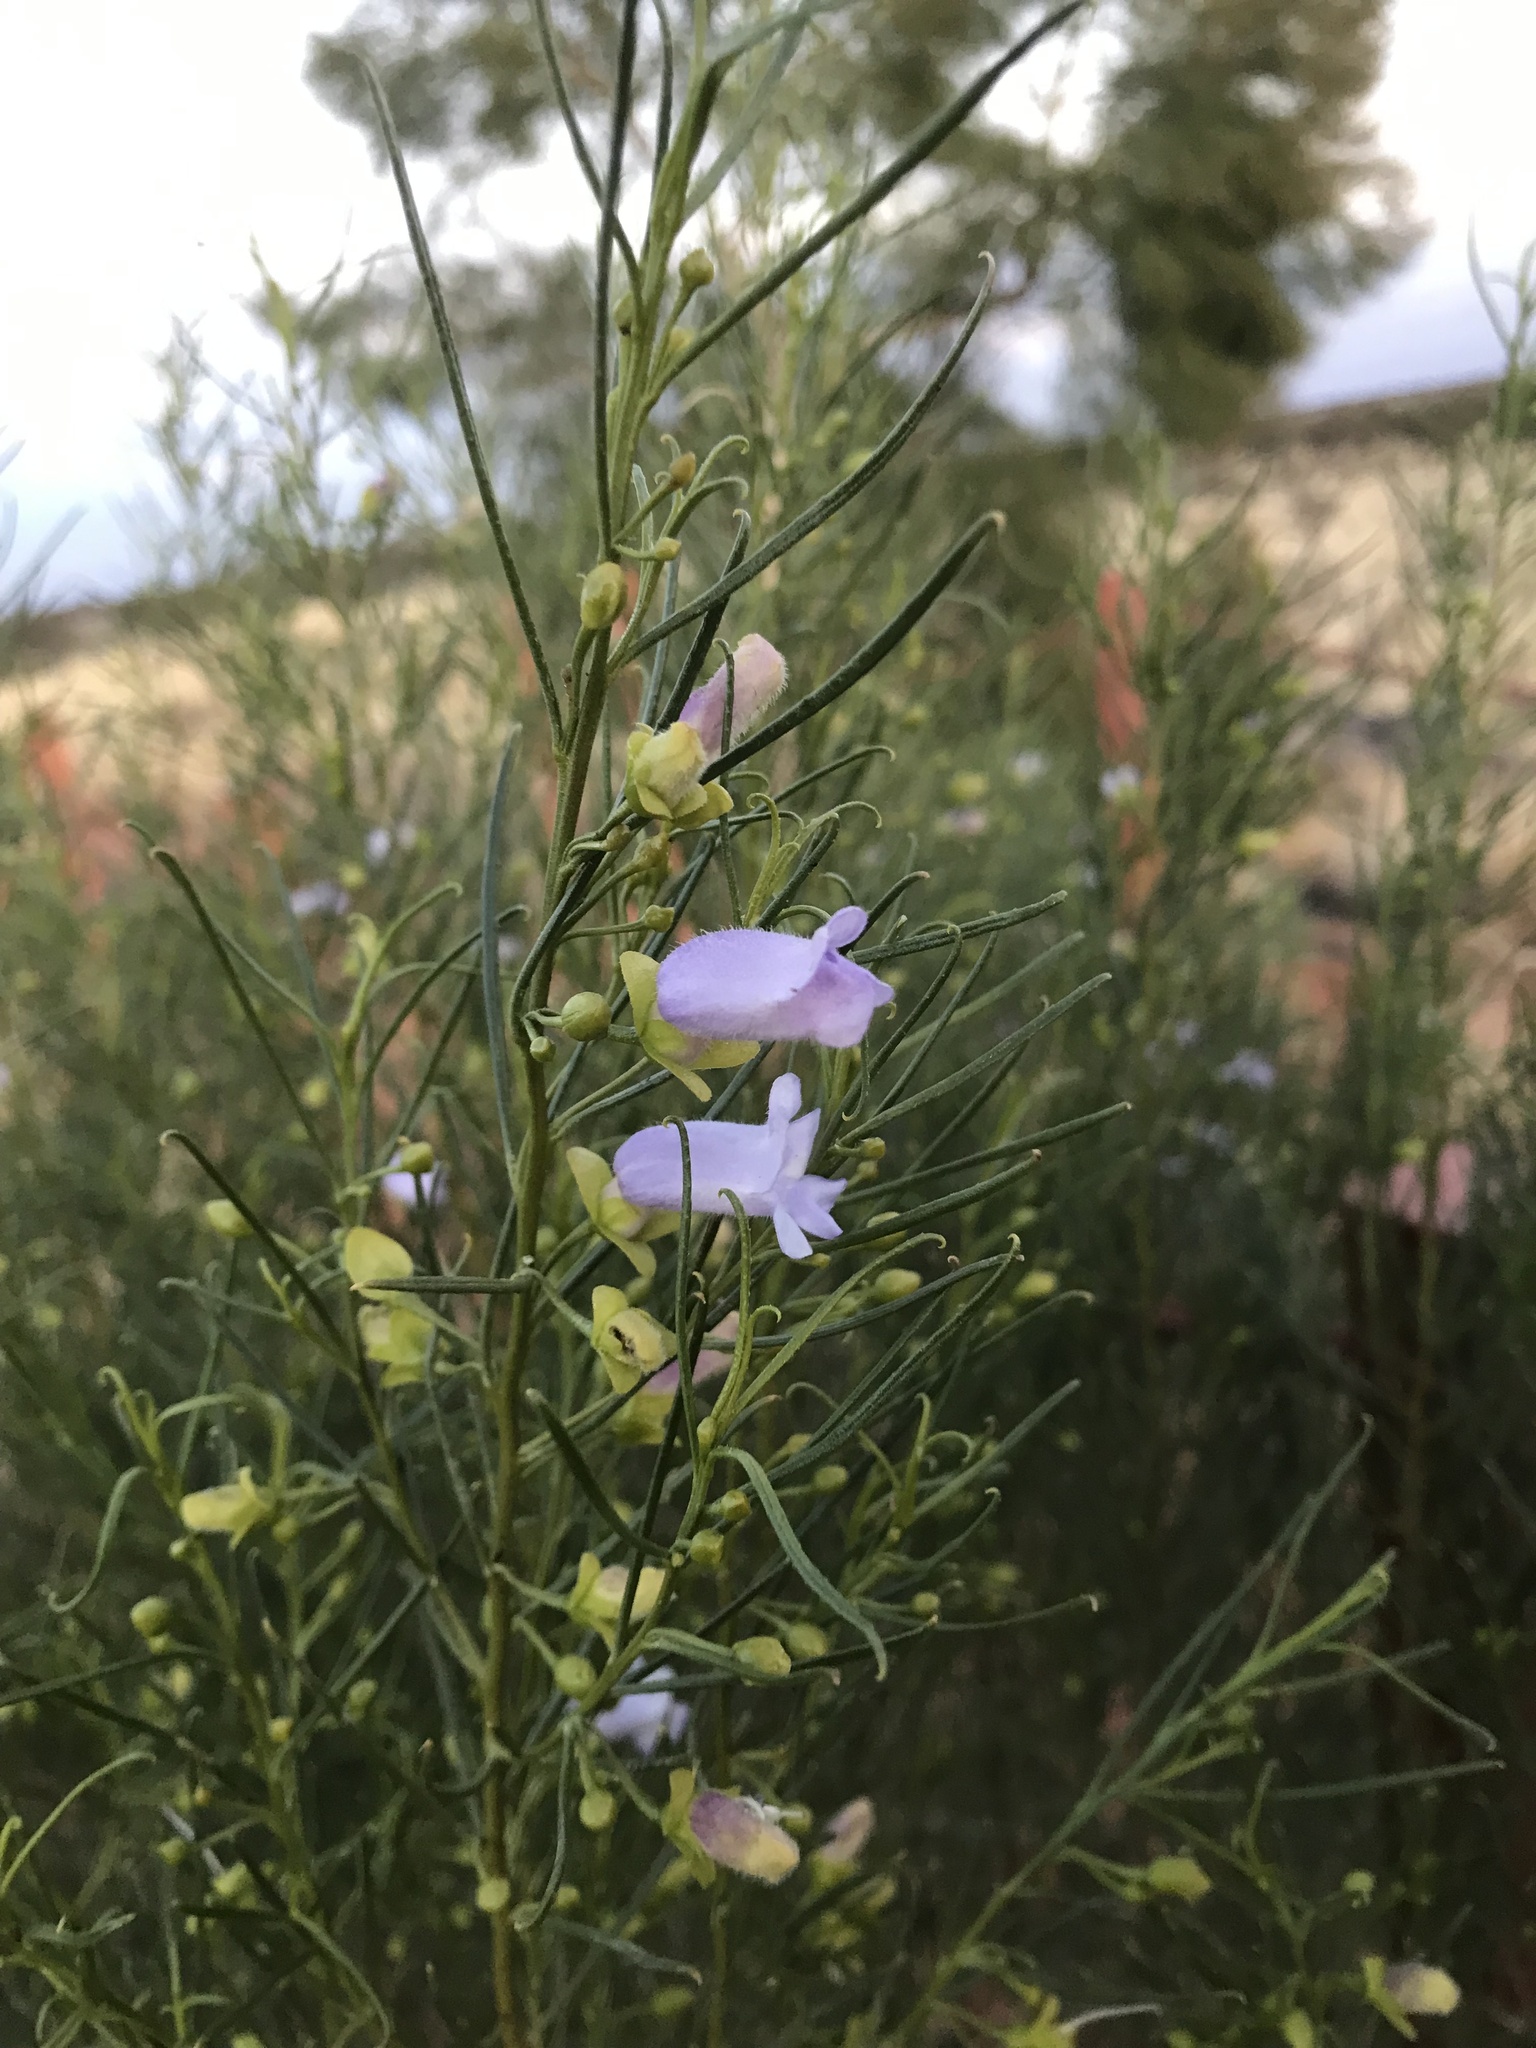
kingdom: Plantae
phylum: Tracheophyta
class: Magnoliopsida
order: Lamiales
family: Scrophulariaceae
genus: Eremophila
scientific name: Eremophila gibsonii
